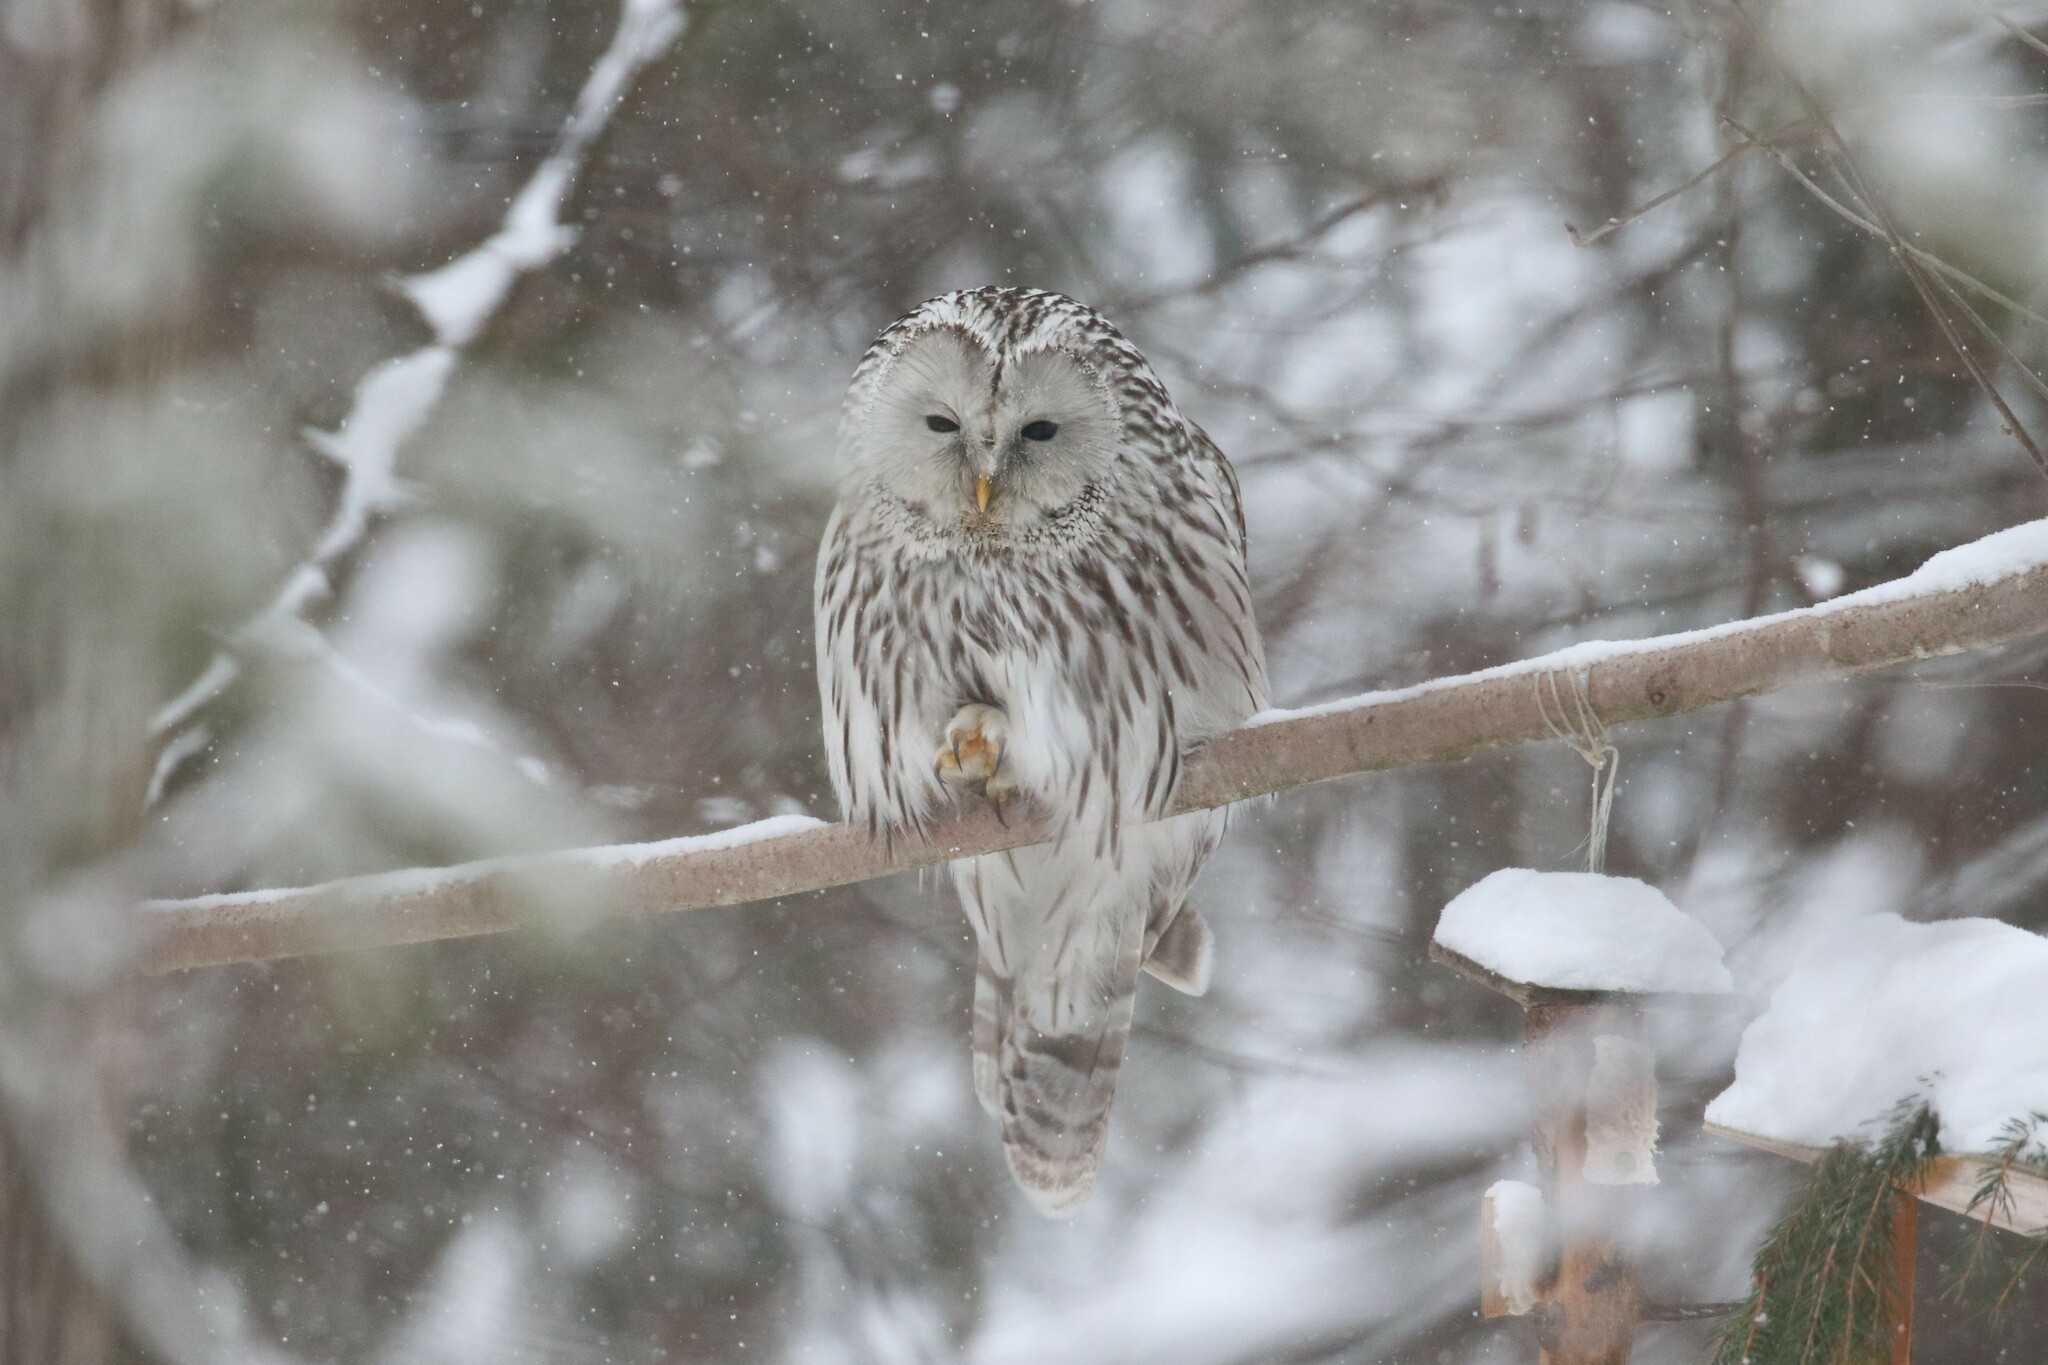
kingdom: Animalia
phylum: Chordata
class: Aves
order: Strigiformes
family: Strigidae
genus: Strix
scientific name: Strix uralensis
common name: Ural owl
